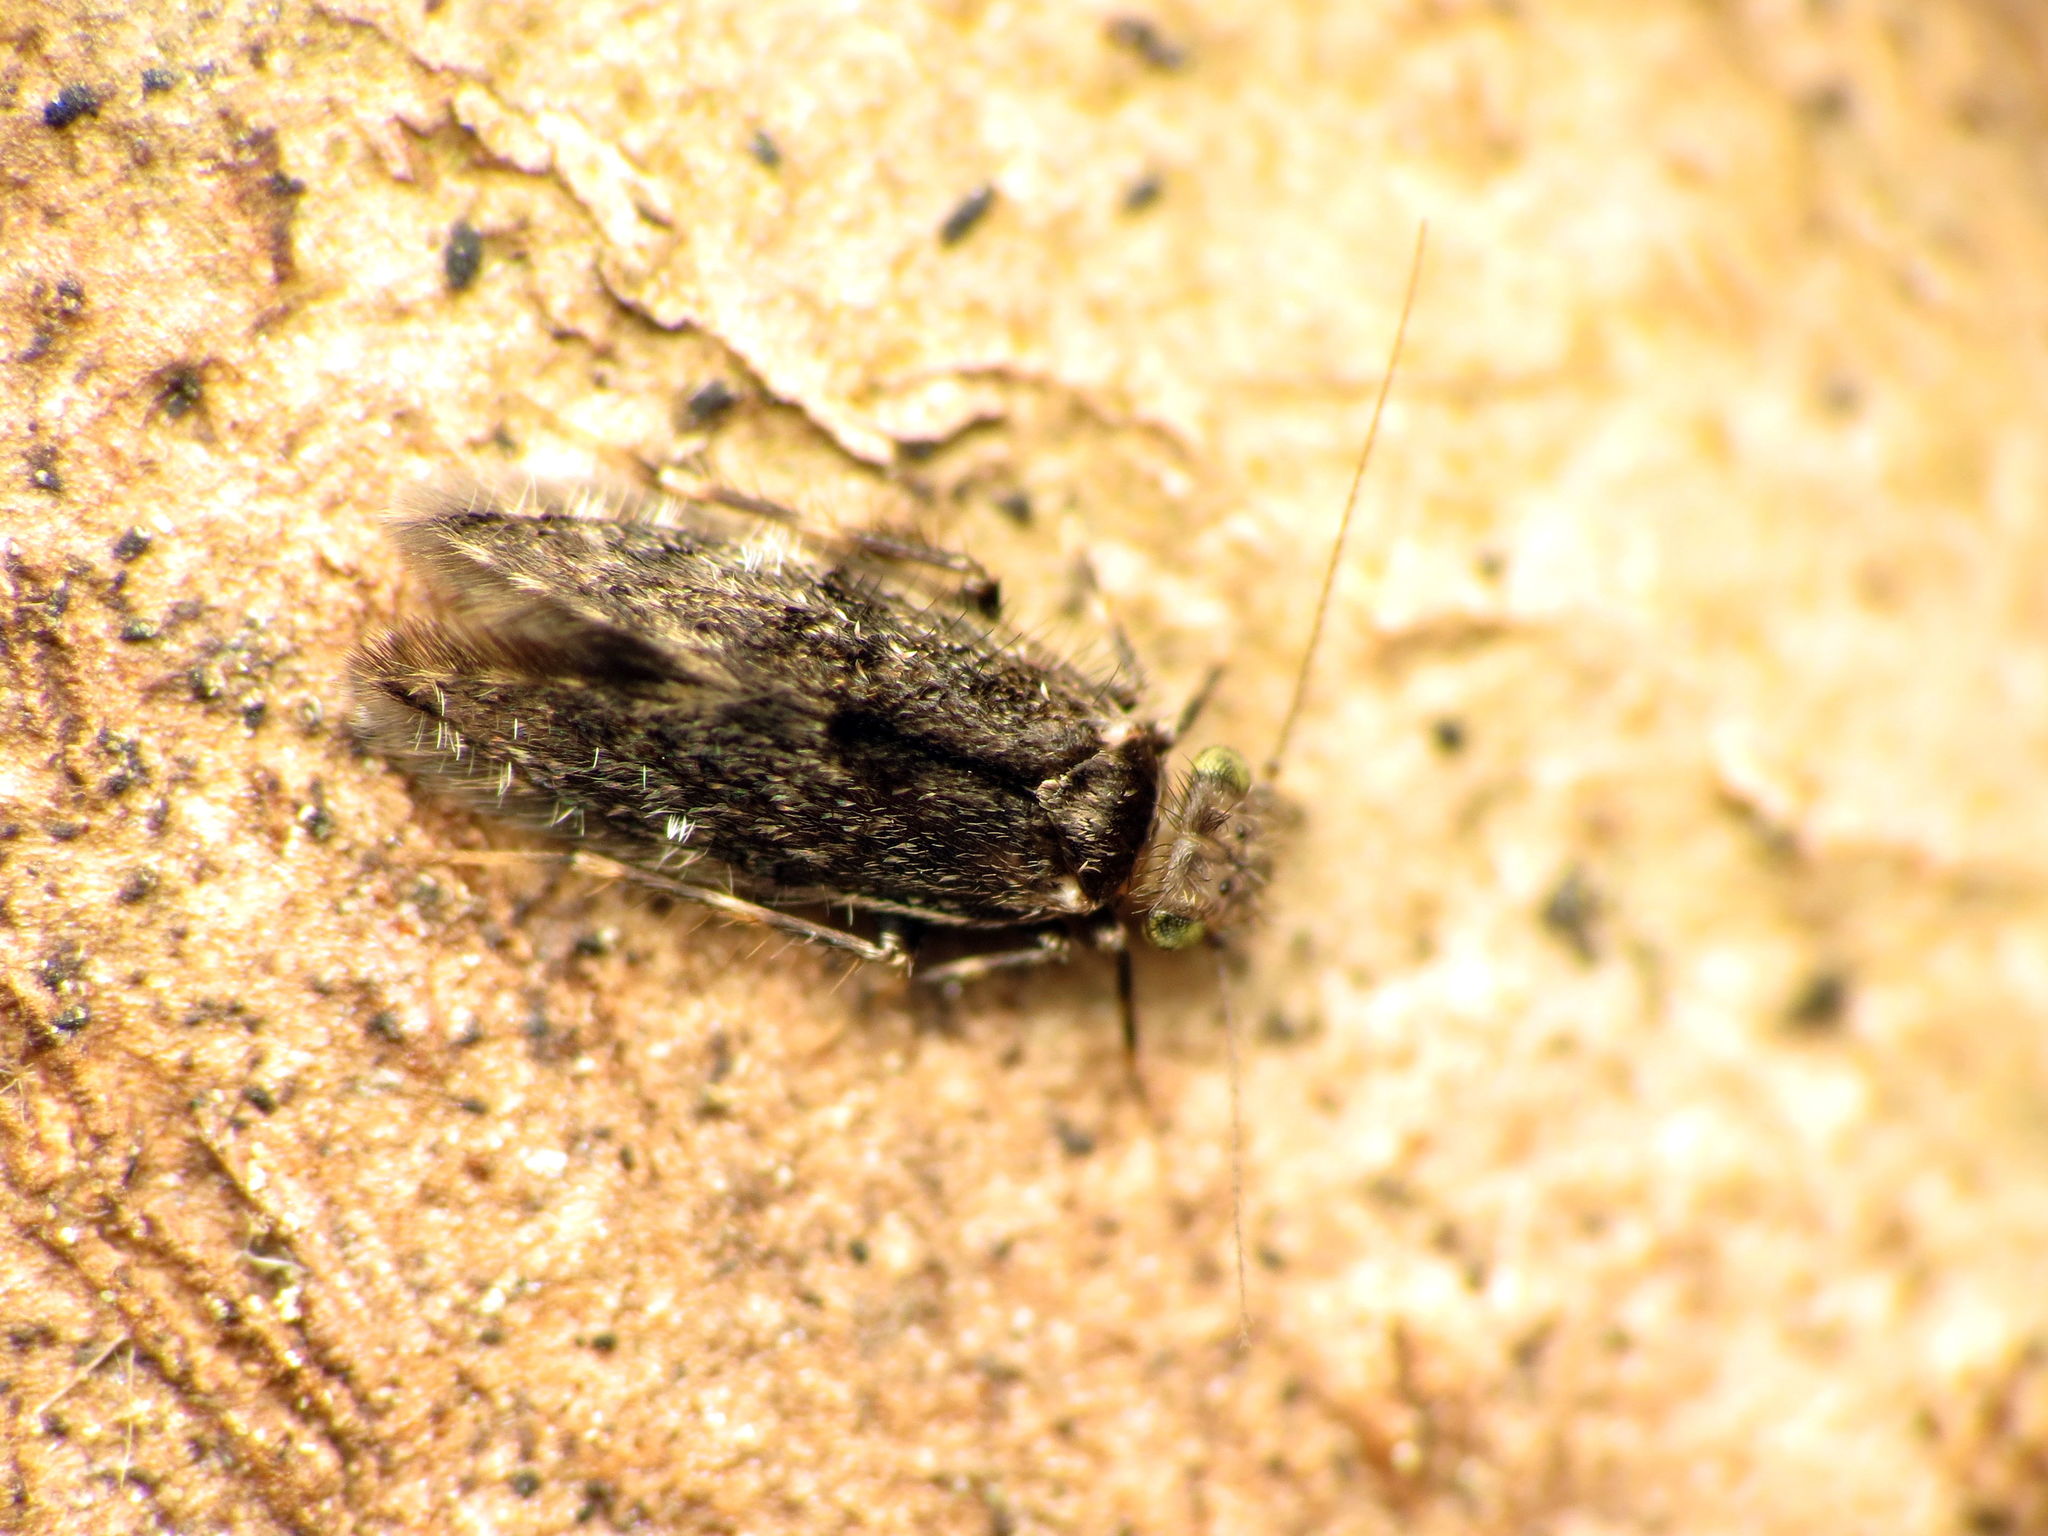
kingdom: Animalia
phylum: Arthropoda
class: Insecta
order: Psocodea
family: Lepidopsocidae
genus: Echmepteryx
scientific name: Echmepteryx hageni
